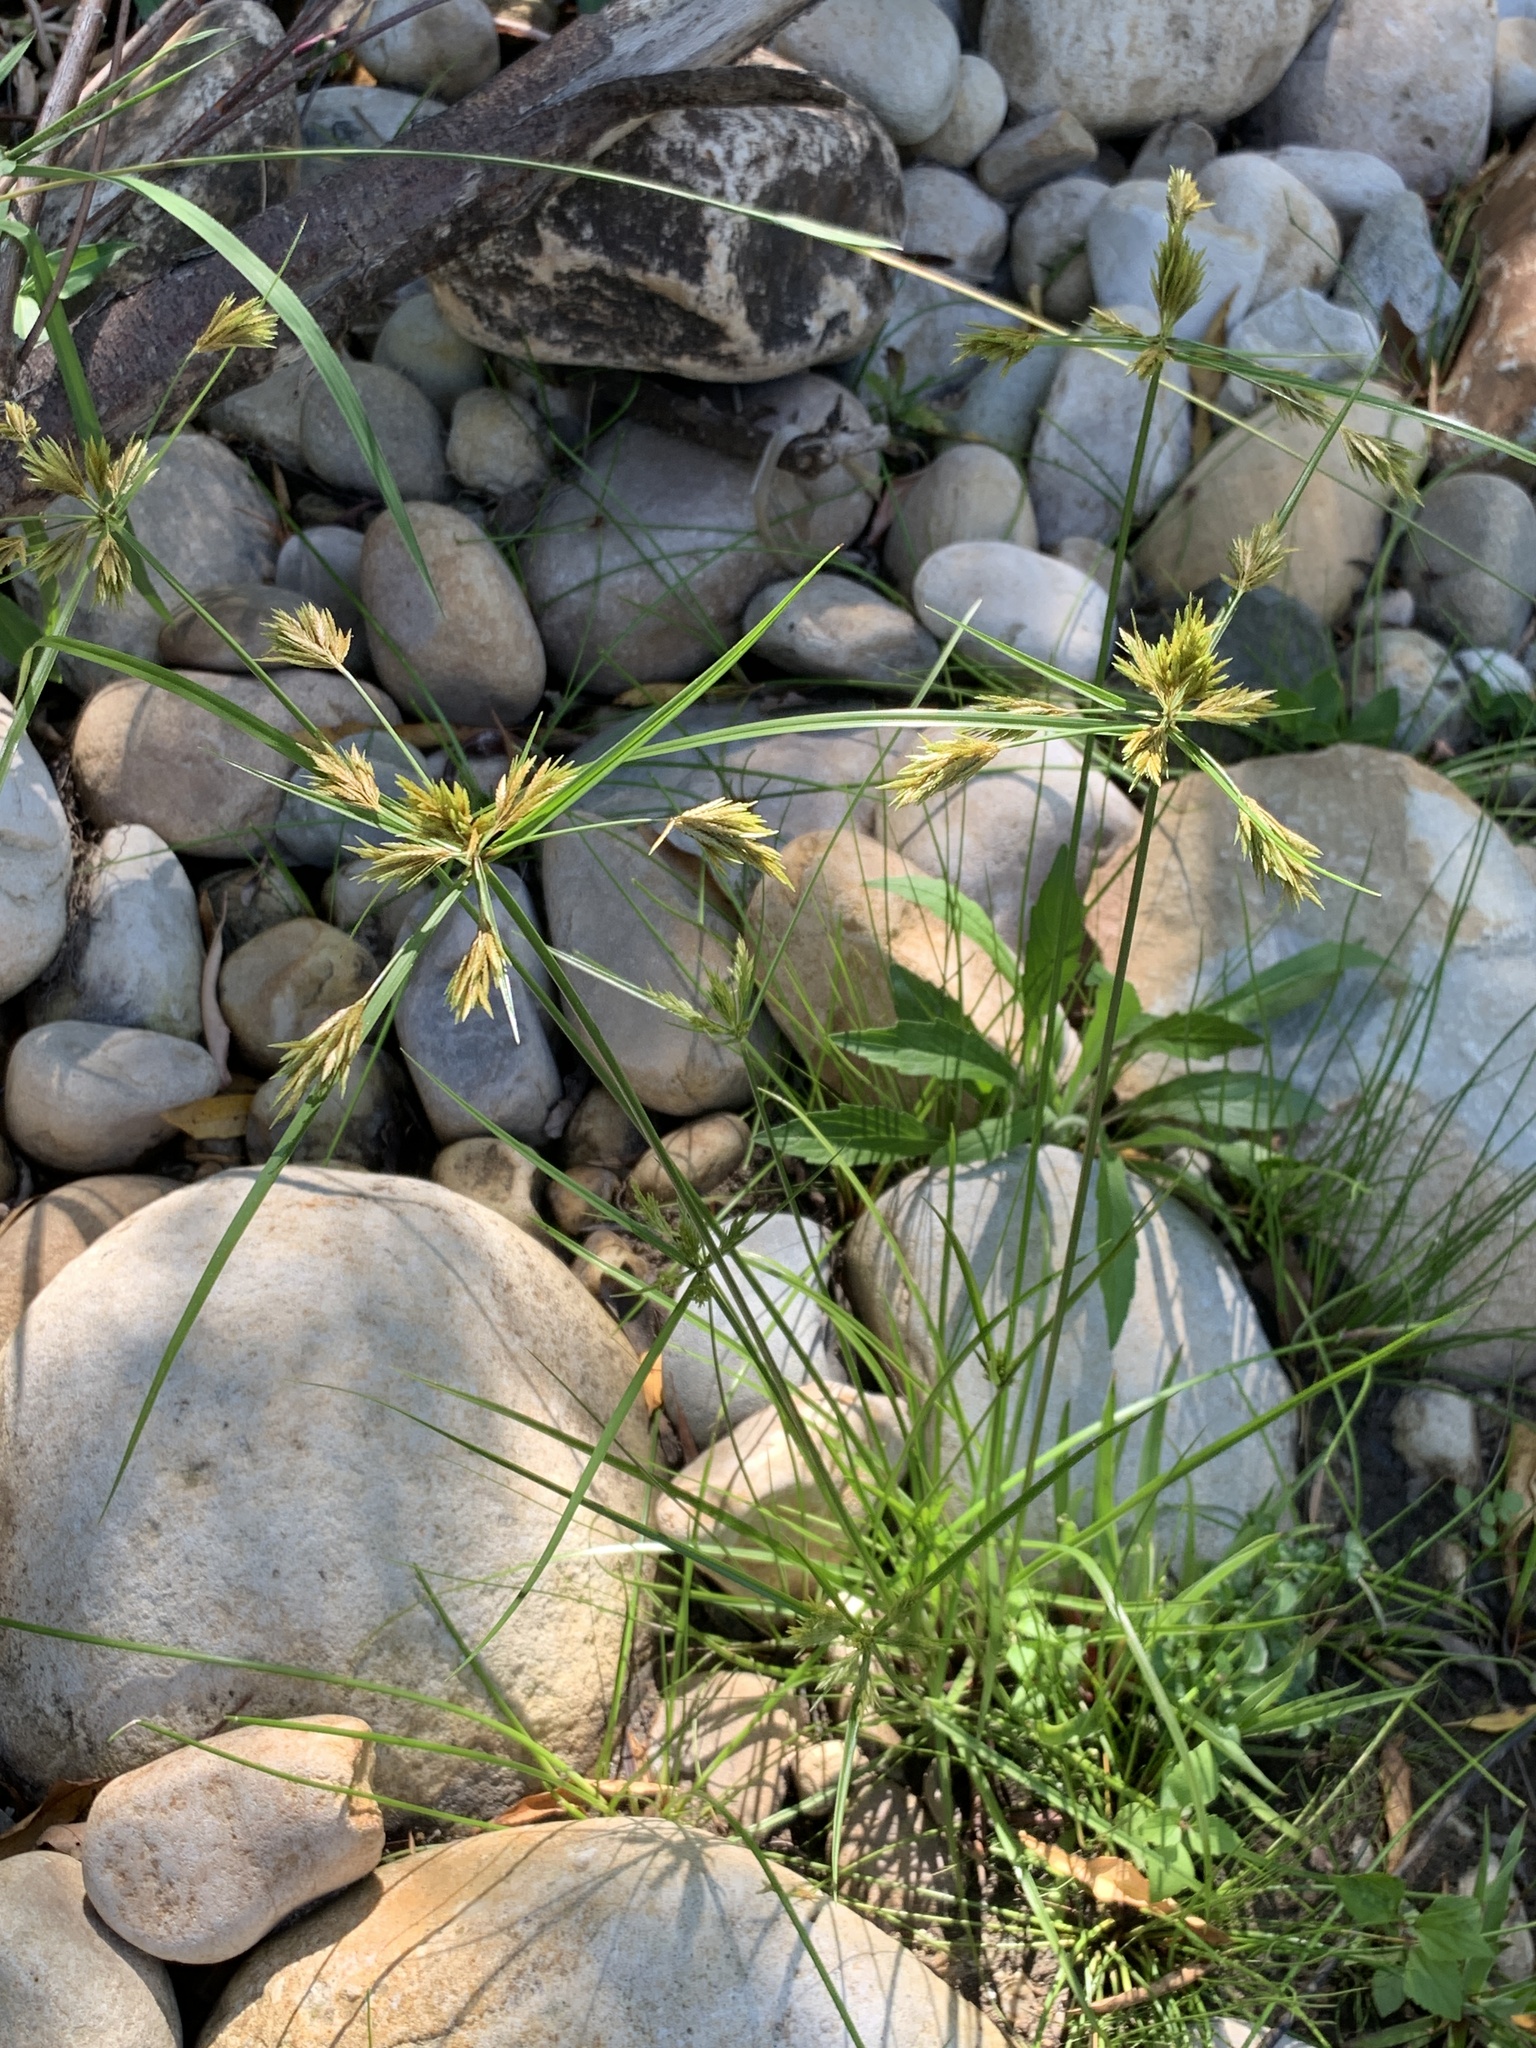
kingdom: Plantae
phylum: Tracheophyta
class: Liliopsida
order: Poales
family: Cyperaceae
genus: Cyperus
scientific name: Cyperus polystachyos
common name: Bunchy flat sedge
